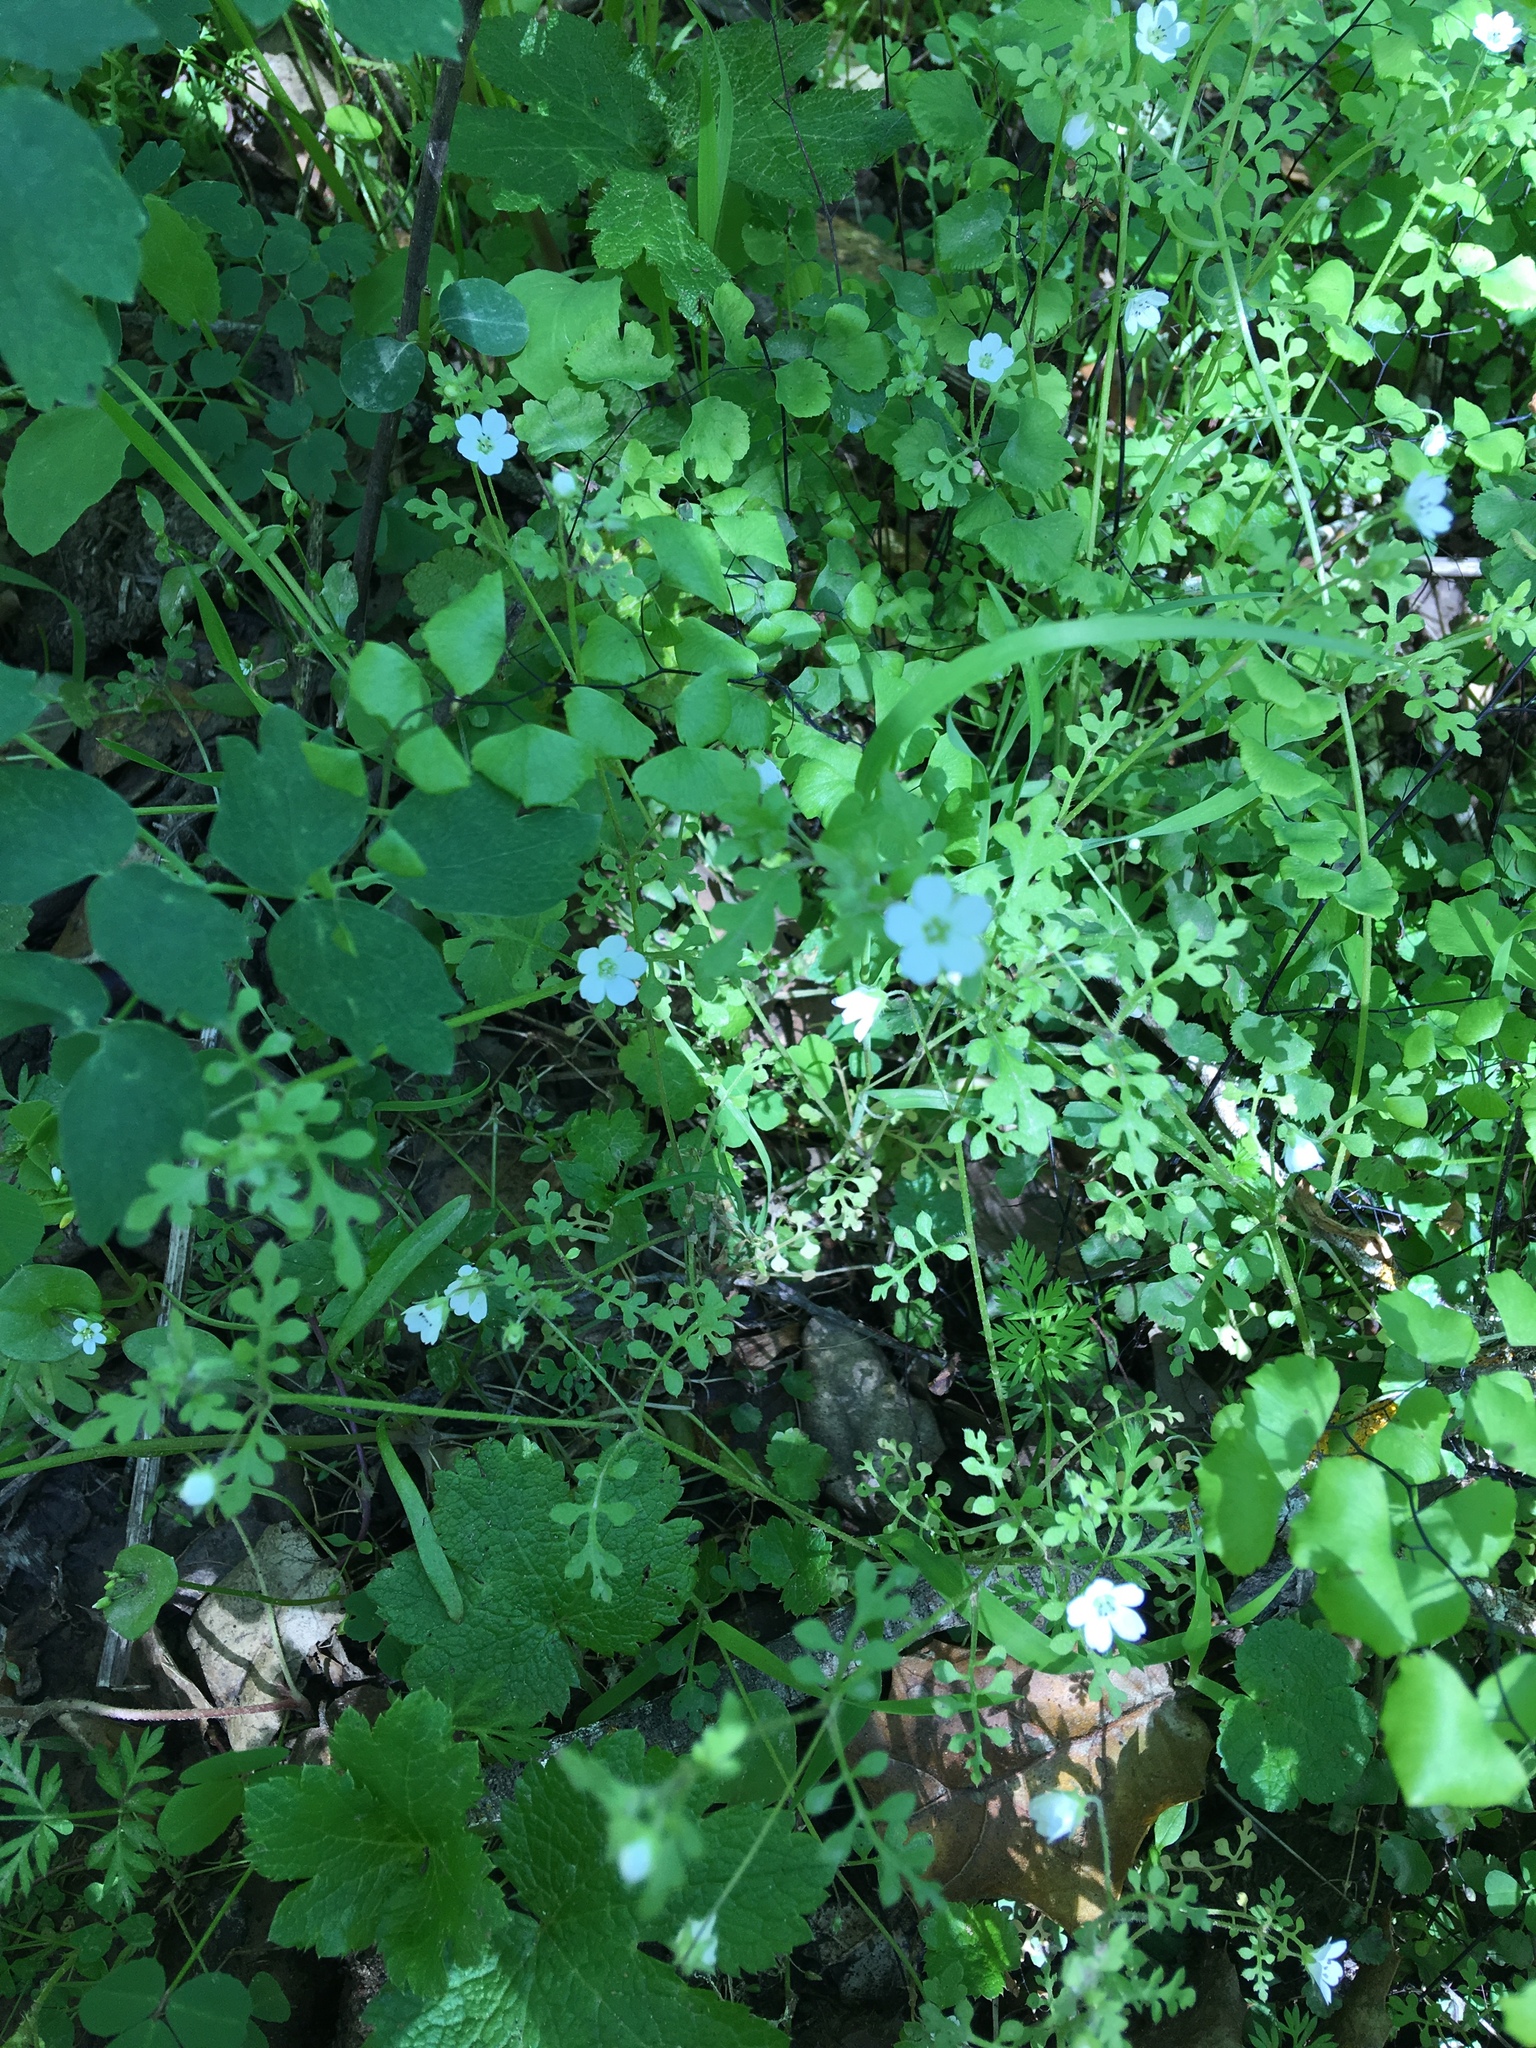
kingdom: Plantae
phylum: Tracheophyta
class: Magnoliopsida
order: Boraginales
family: Hydrophyllaceae
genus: Nemophila
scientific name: Nemophila heterophylla
